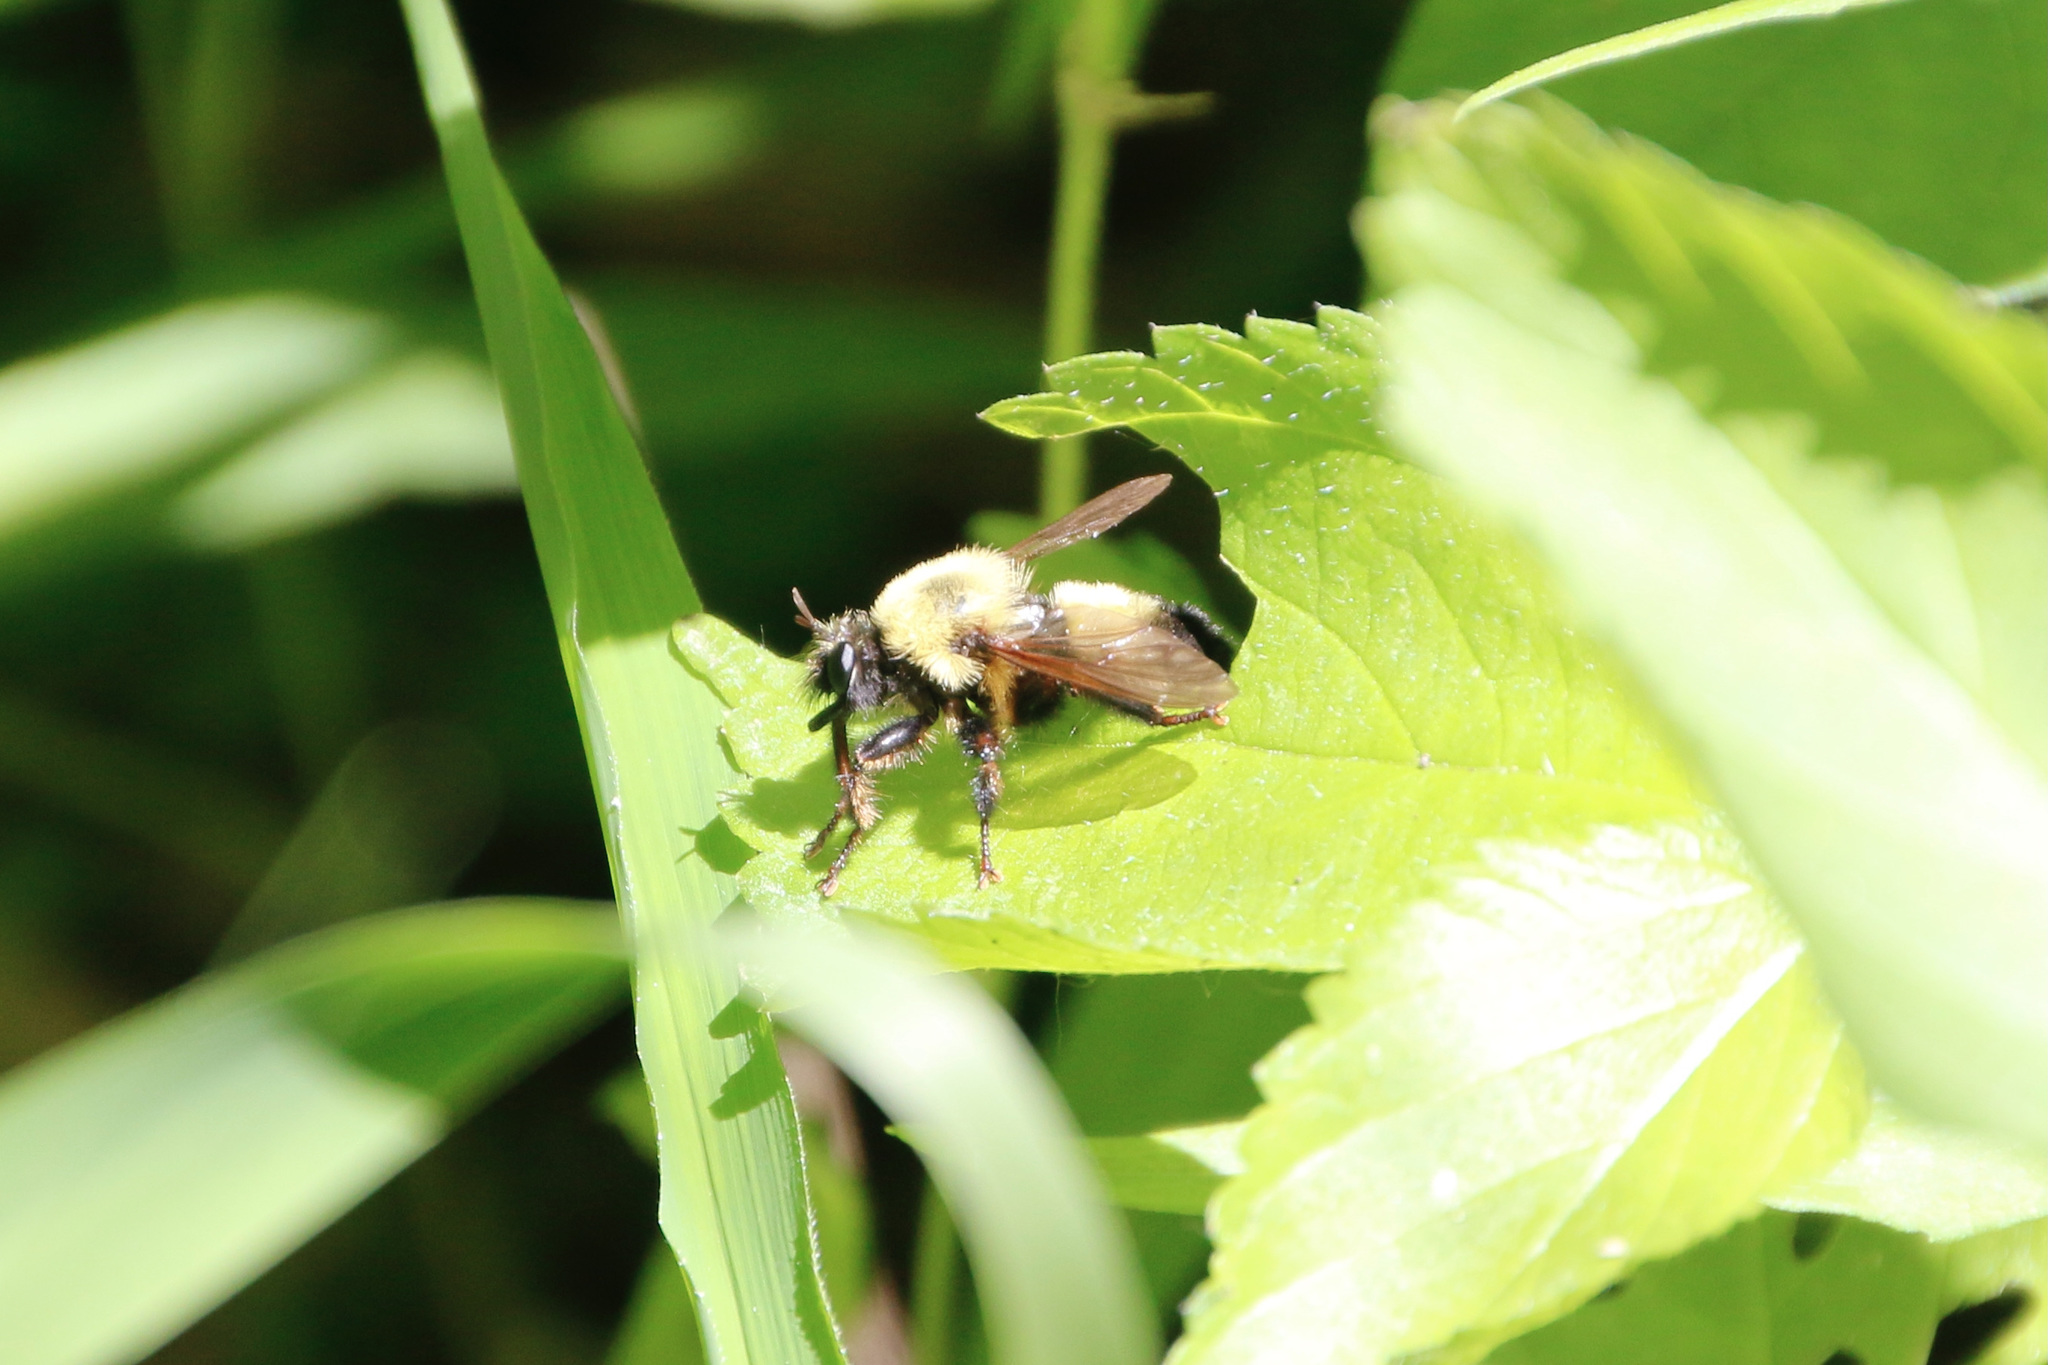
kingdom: Animalia
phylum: Arthropoda
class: Insecta
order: Diptera
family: Asilidae
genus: Laphria
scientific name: Laphria thoracica
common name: Bumble bee mimic robber fly
